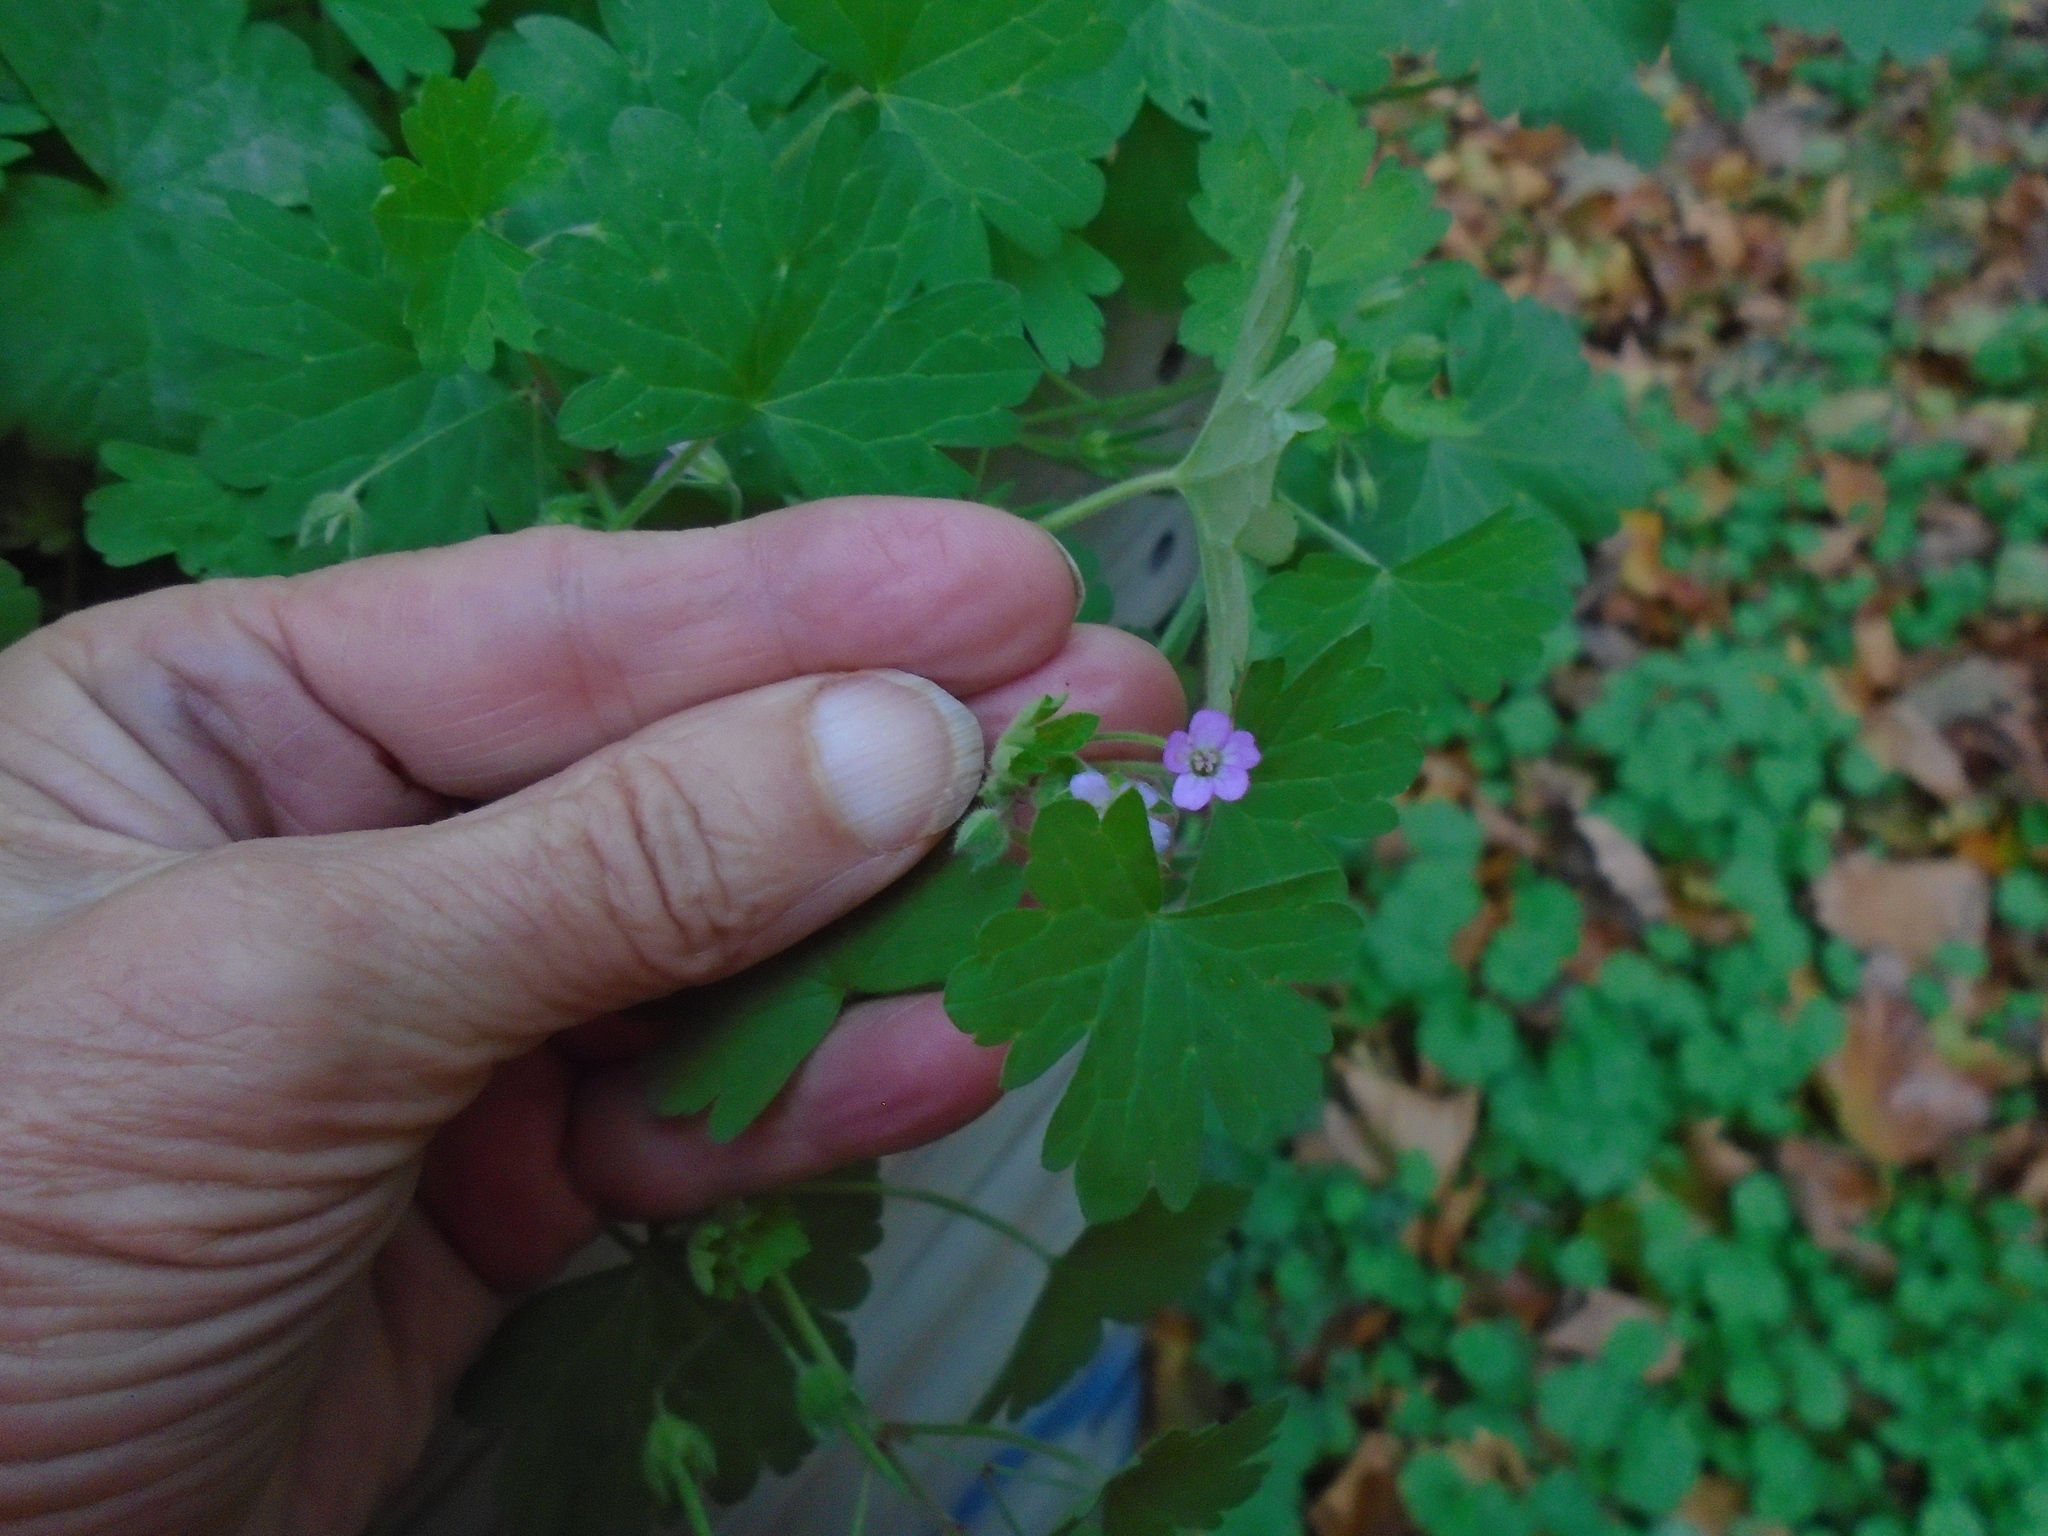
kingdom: Plantae
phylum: Tracheophyta
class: Magnoliopsida
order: Geraniales
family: Geraniaceae
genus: Geranium
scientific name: Geranium rotundifolium
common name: Round-leaved crane's-bill
